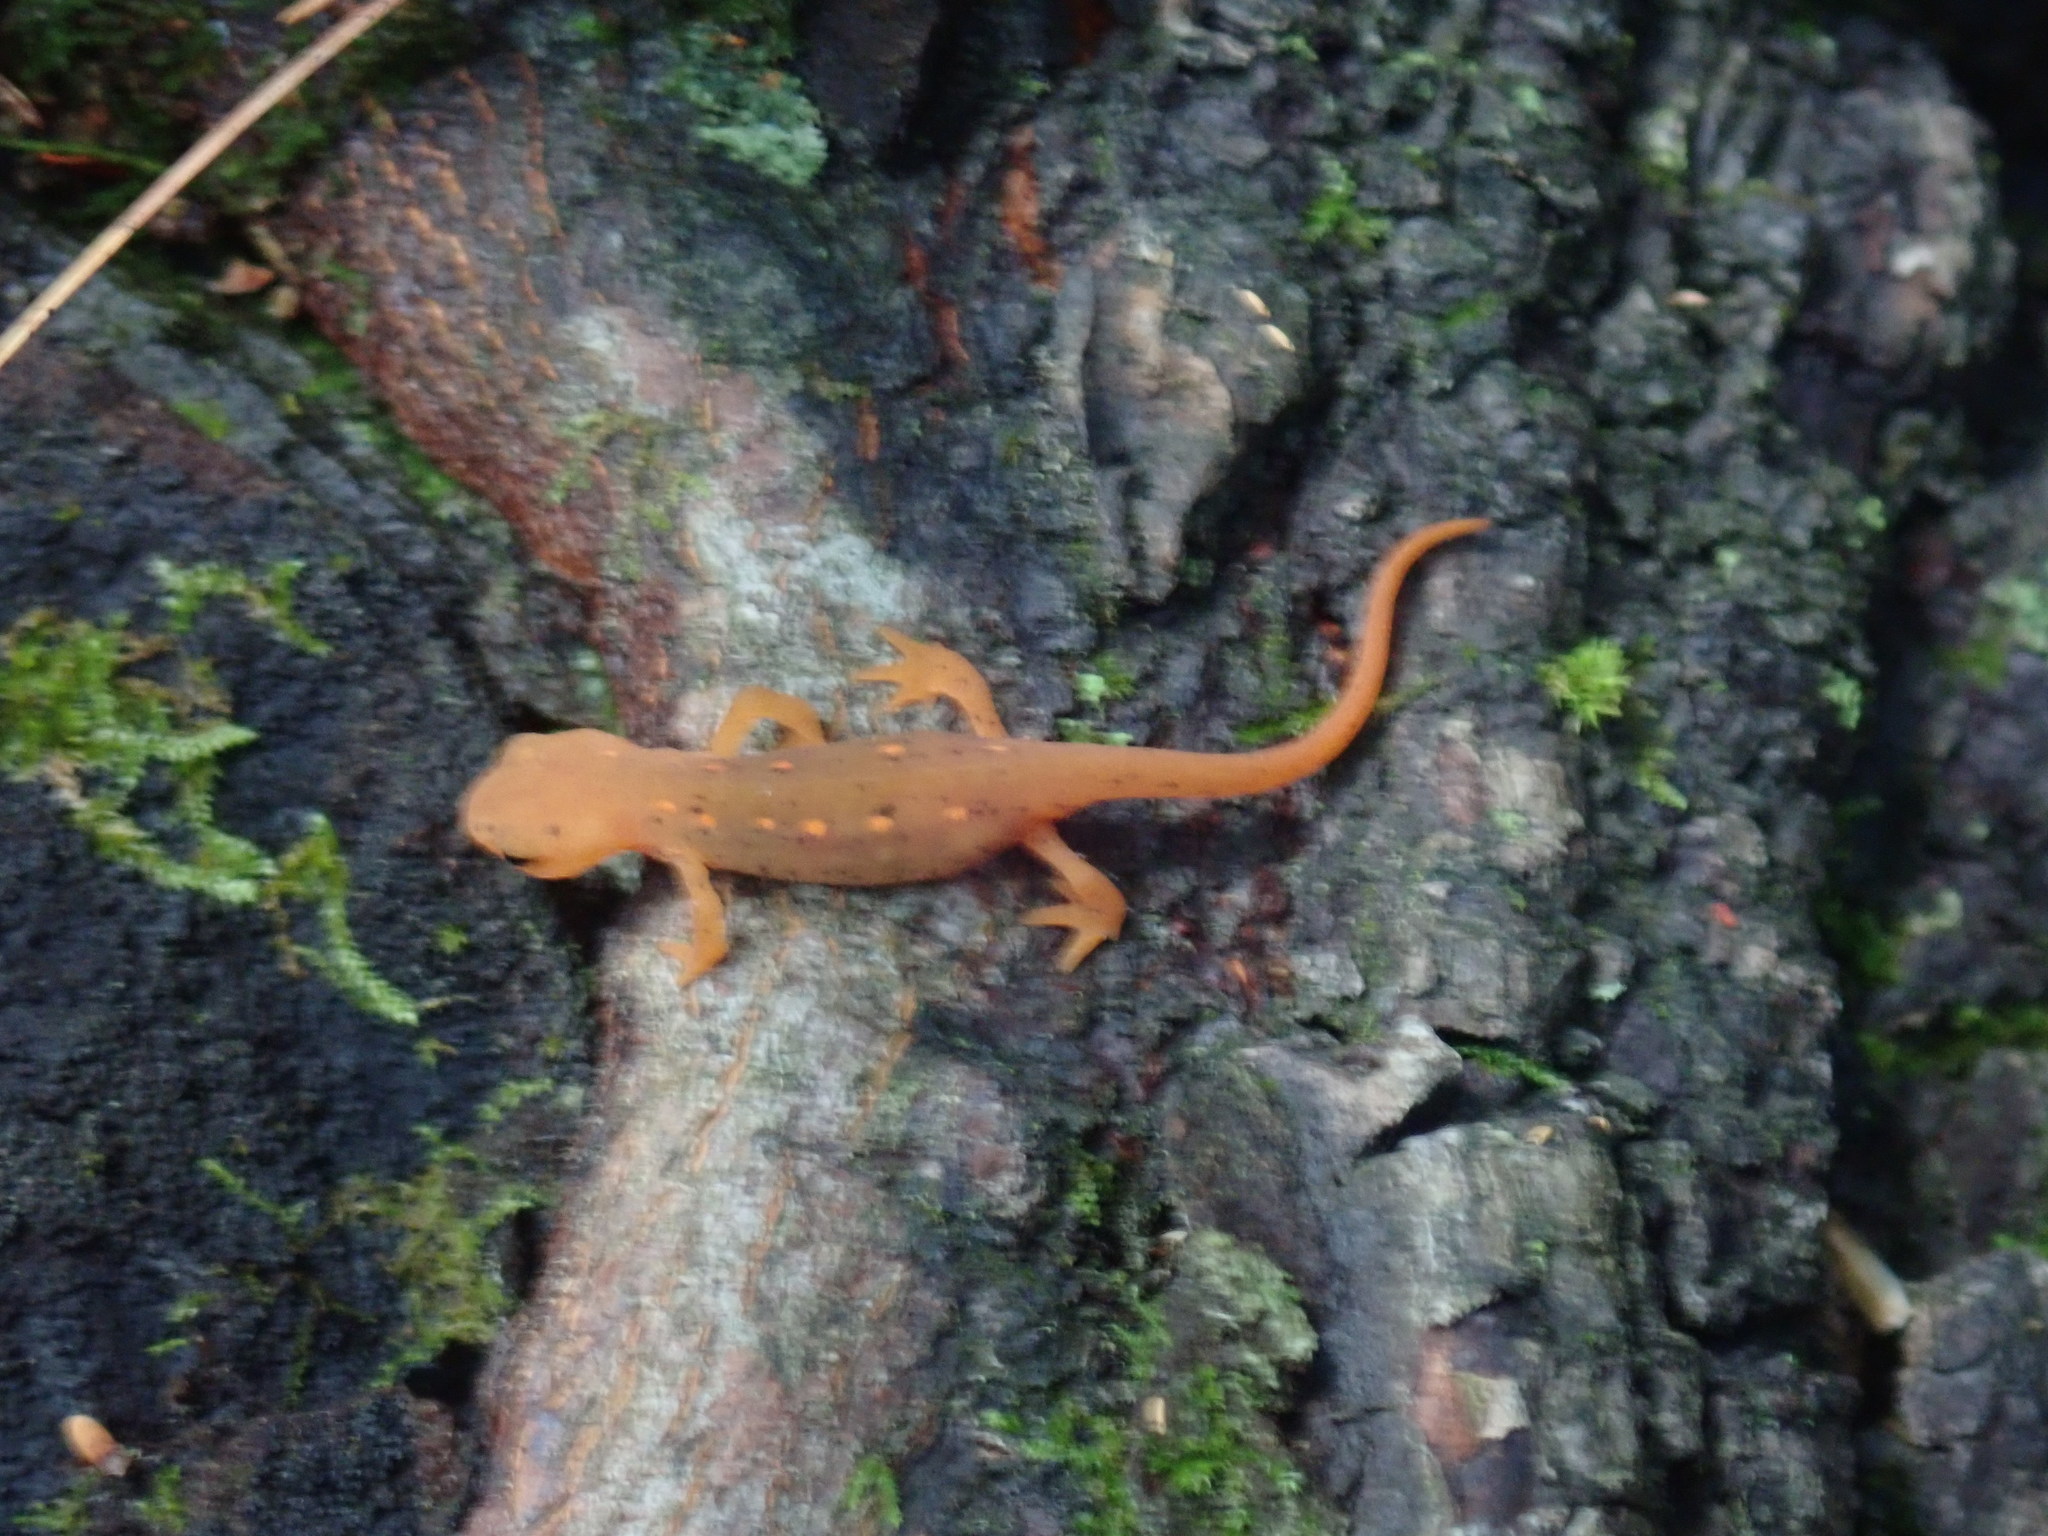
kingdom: Animalia
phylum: Chordata
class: Amphibia
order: Caudata
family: Salamandridae
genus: Notophthalmus
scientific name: Notophthalmus viridescens
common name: Eastern newt
